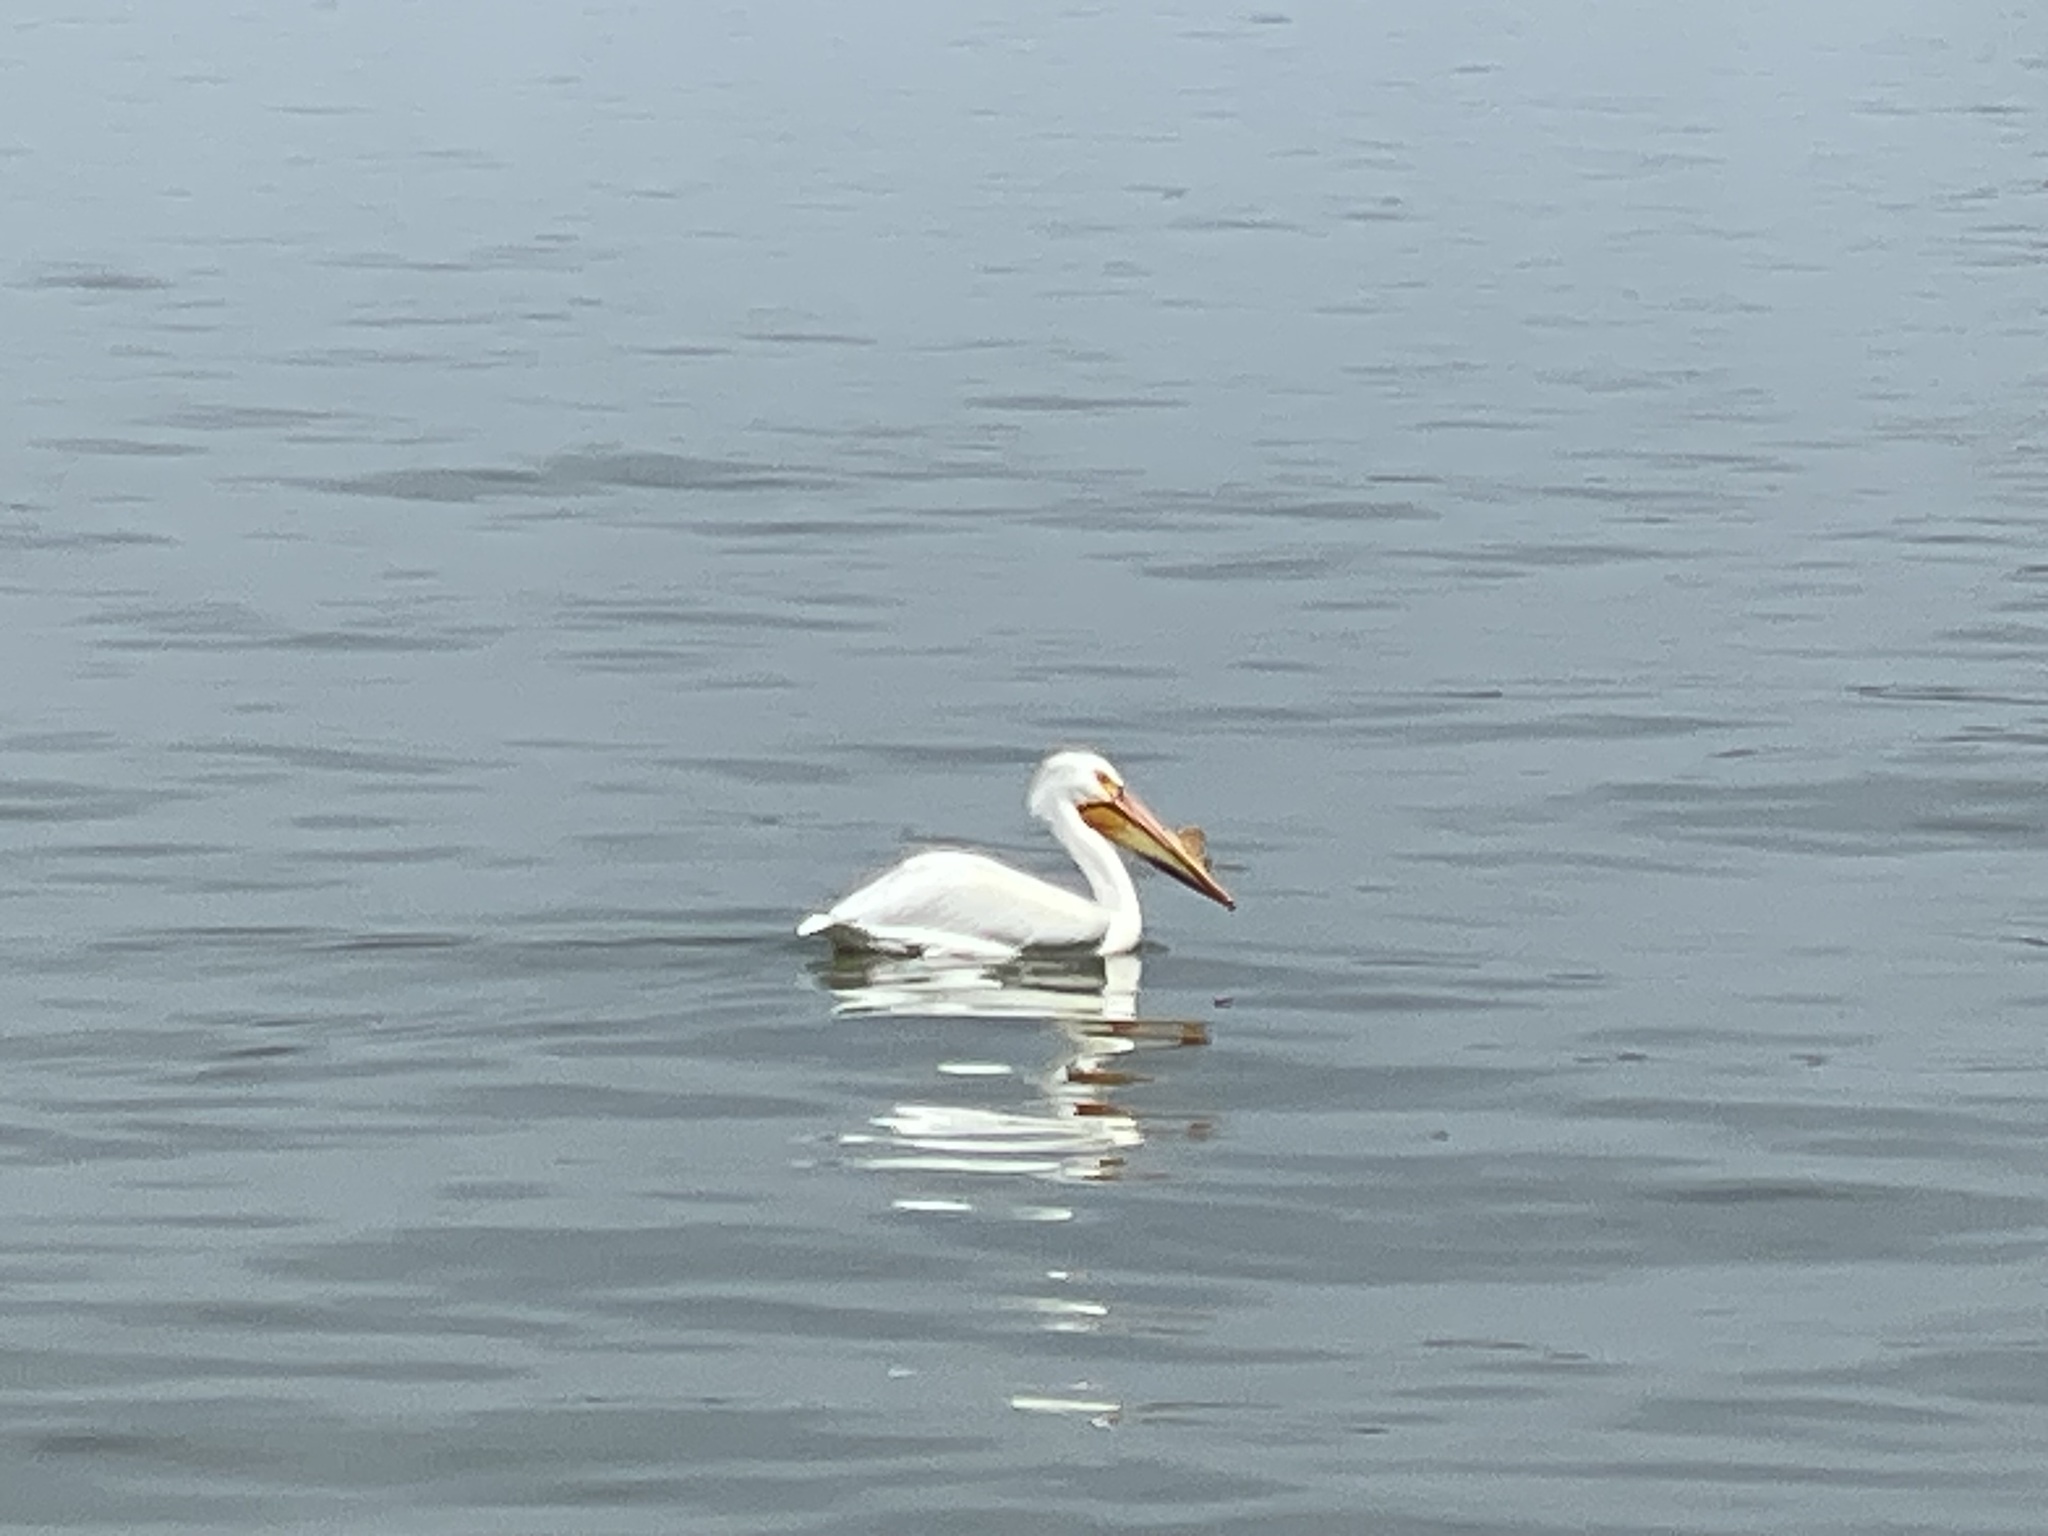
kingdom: Animalia
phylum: Chordata
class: Aves
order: Pelecaniformes
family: Pelecanidae
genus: Pelecanus
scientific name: Pelecanus erythrorhynchos
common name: American white pelican
